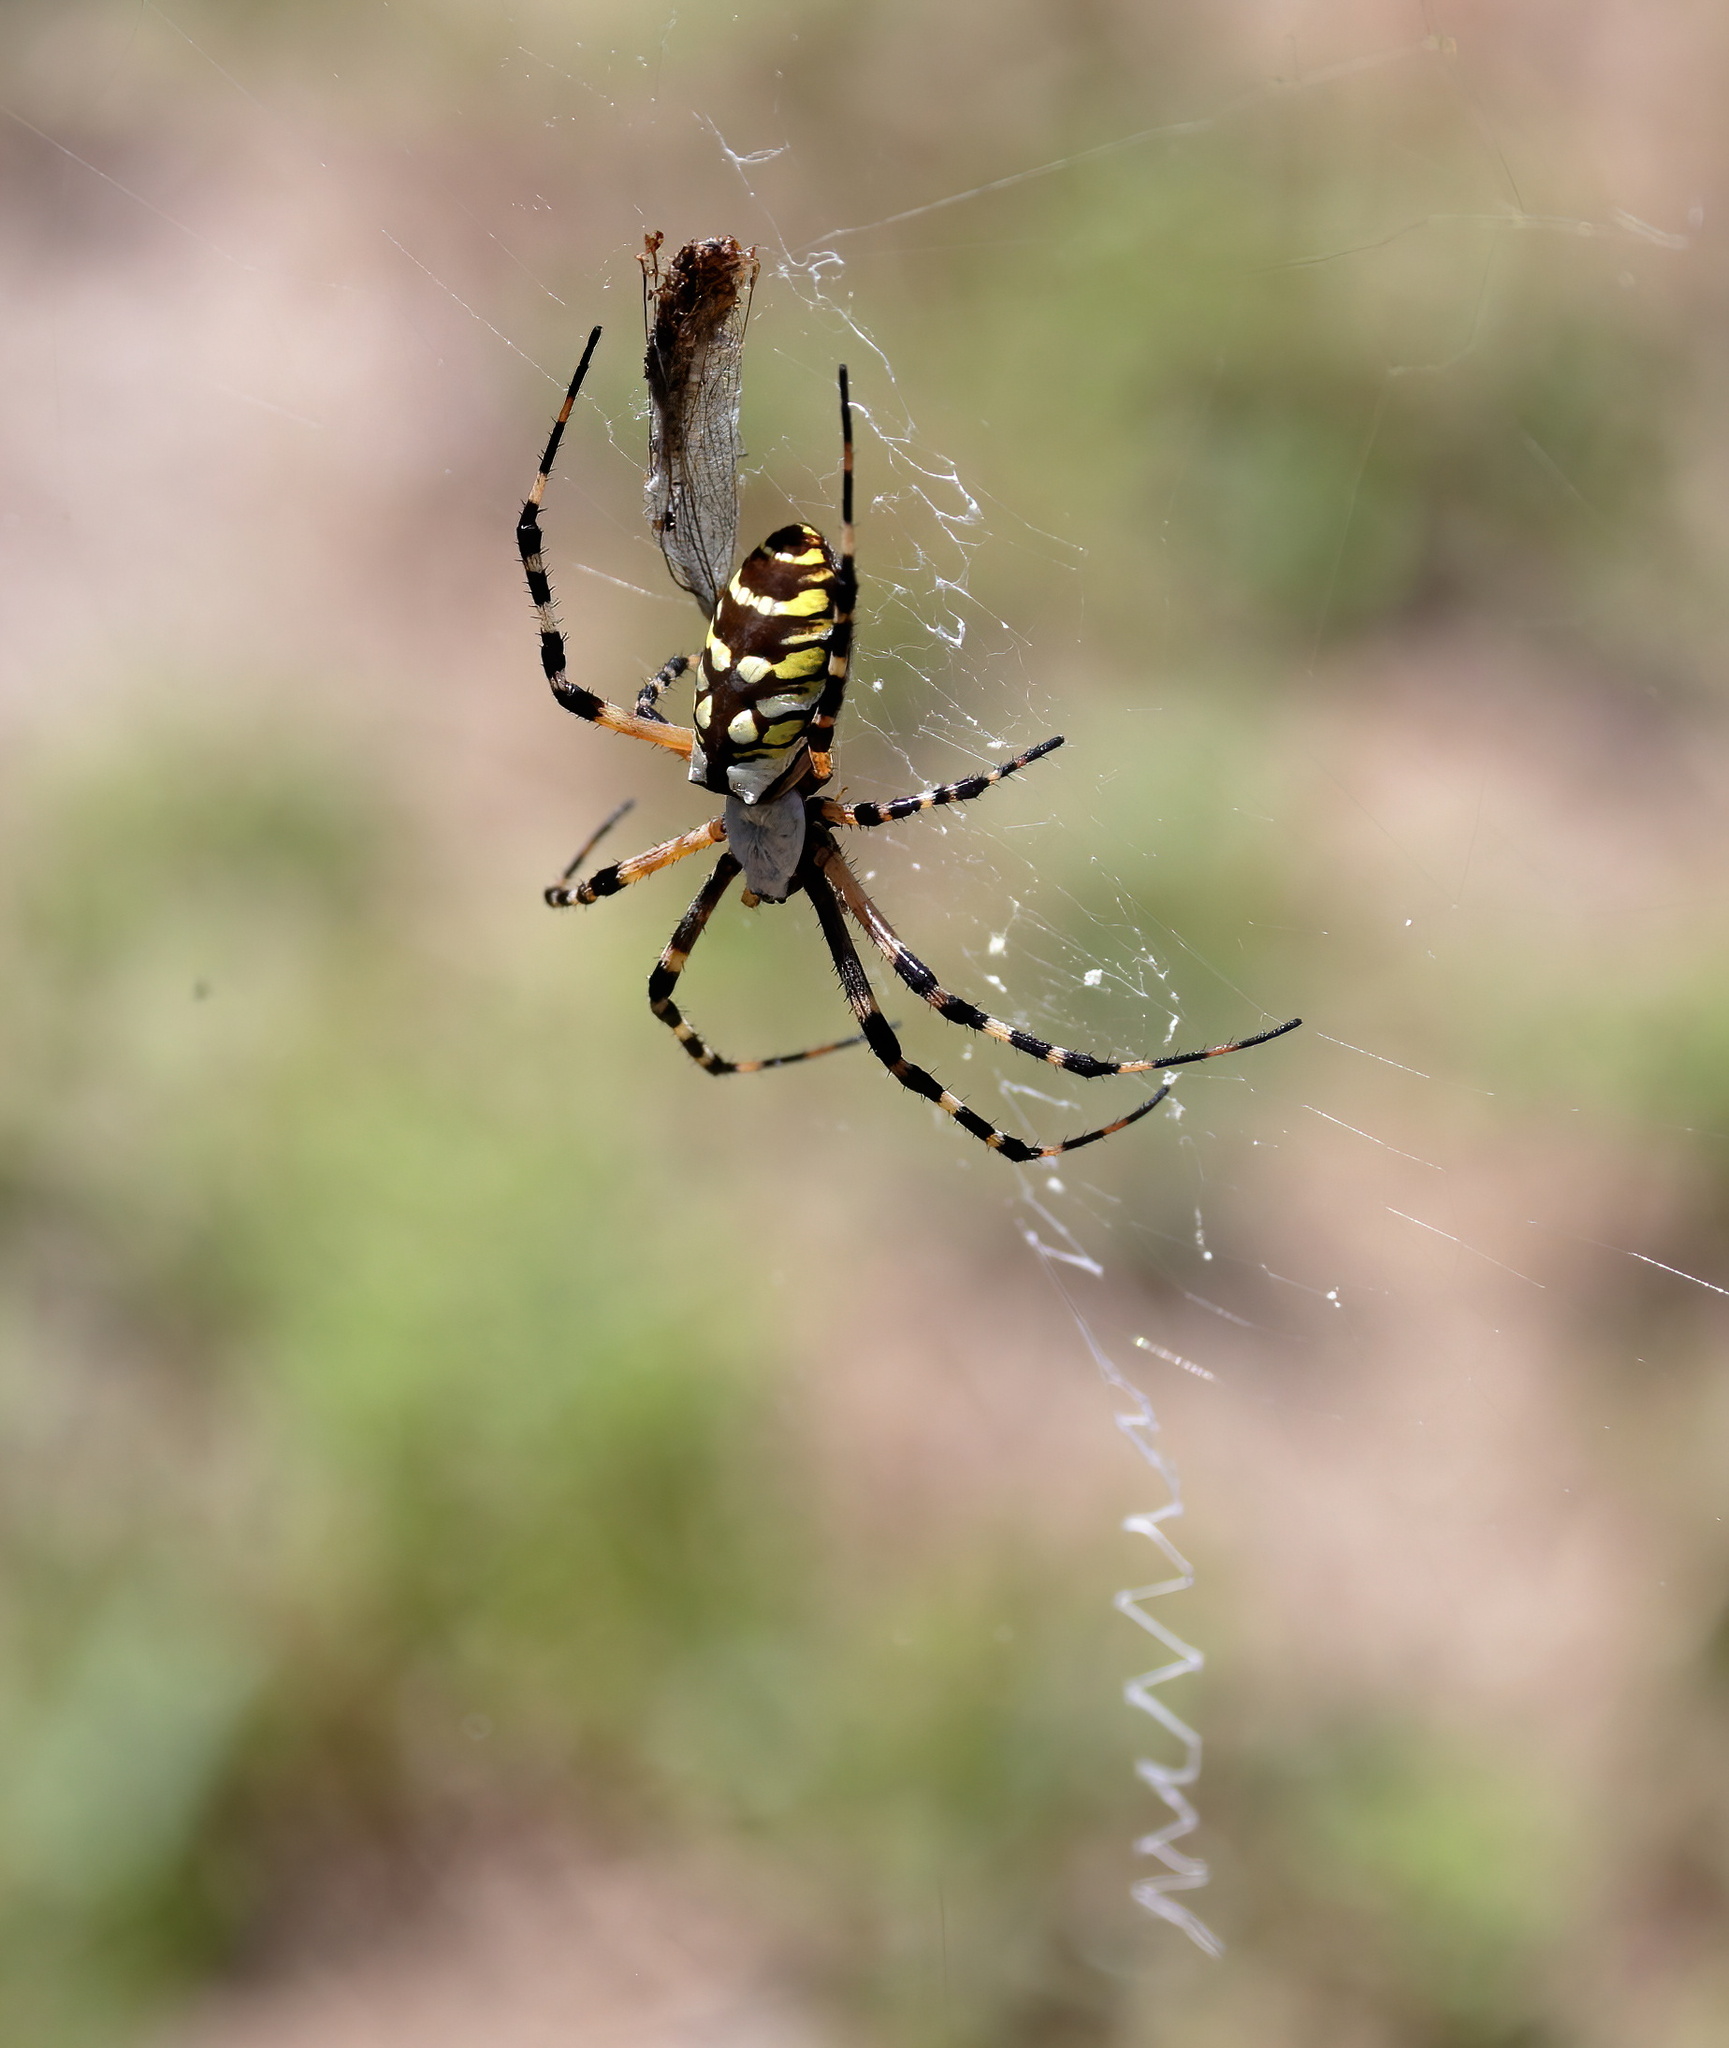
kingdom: Animalia
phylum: Arthropoda
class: Arachnida
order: Araneae
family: Araneidae
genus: Argiope
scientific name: Argiope aurantia
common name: Orb weavers
